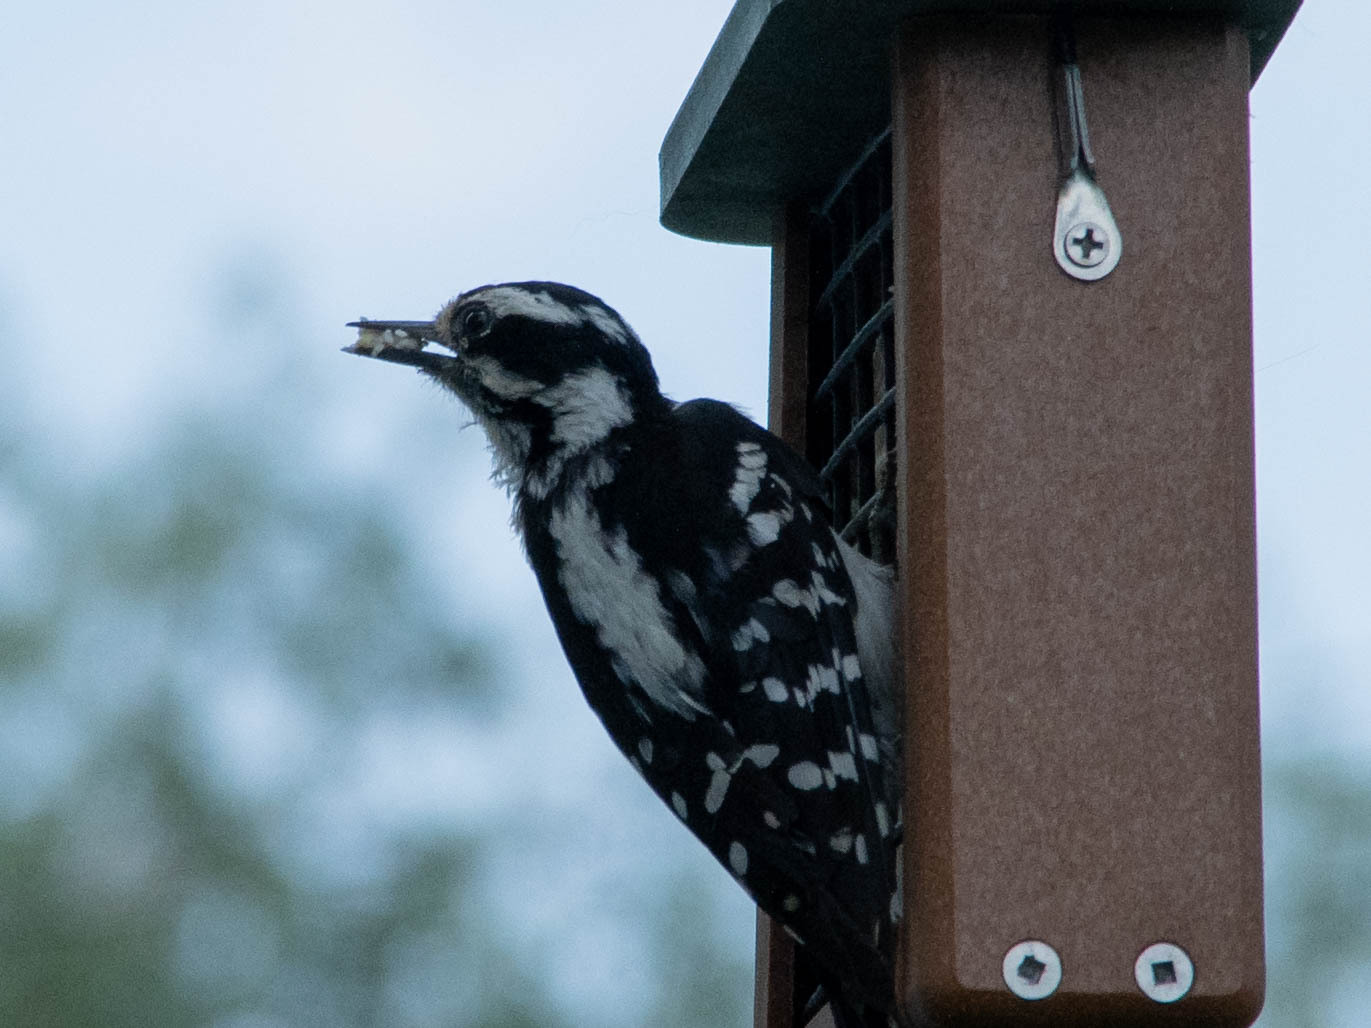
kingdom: Animalia
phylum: Chordata
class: Aves
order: Piciformes
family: Picidae
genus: Dryobates
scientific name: Dryobates pubescens
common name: Downy woodpecker
